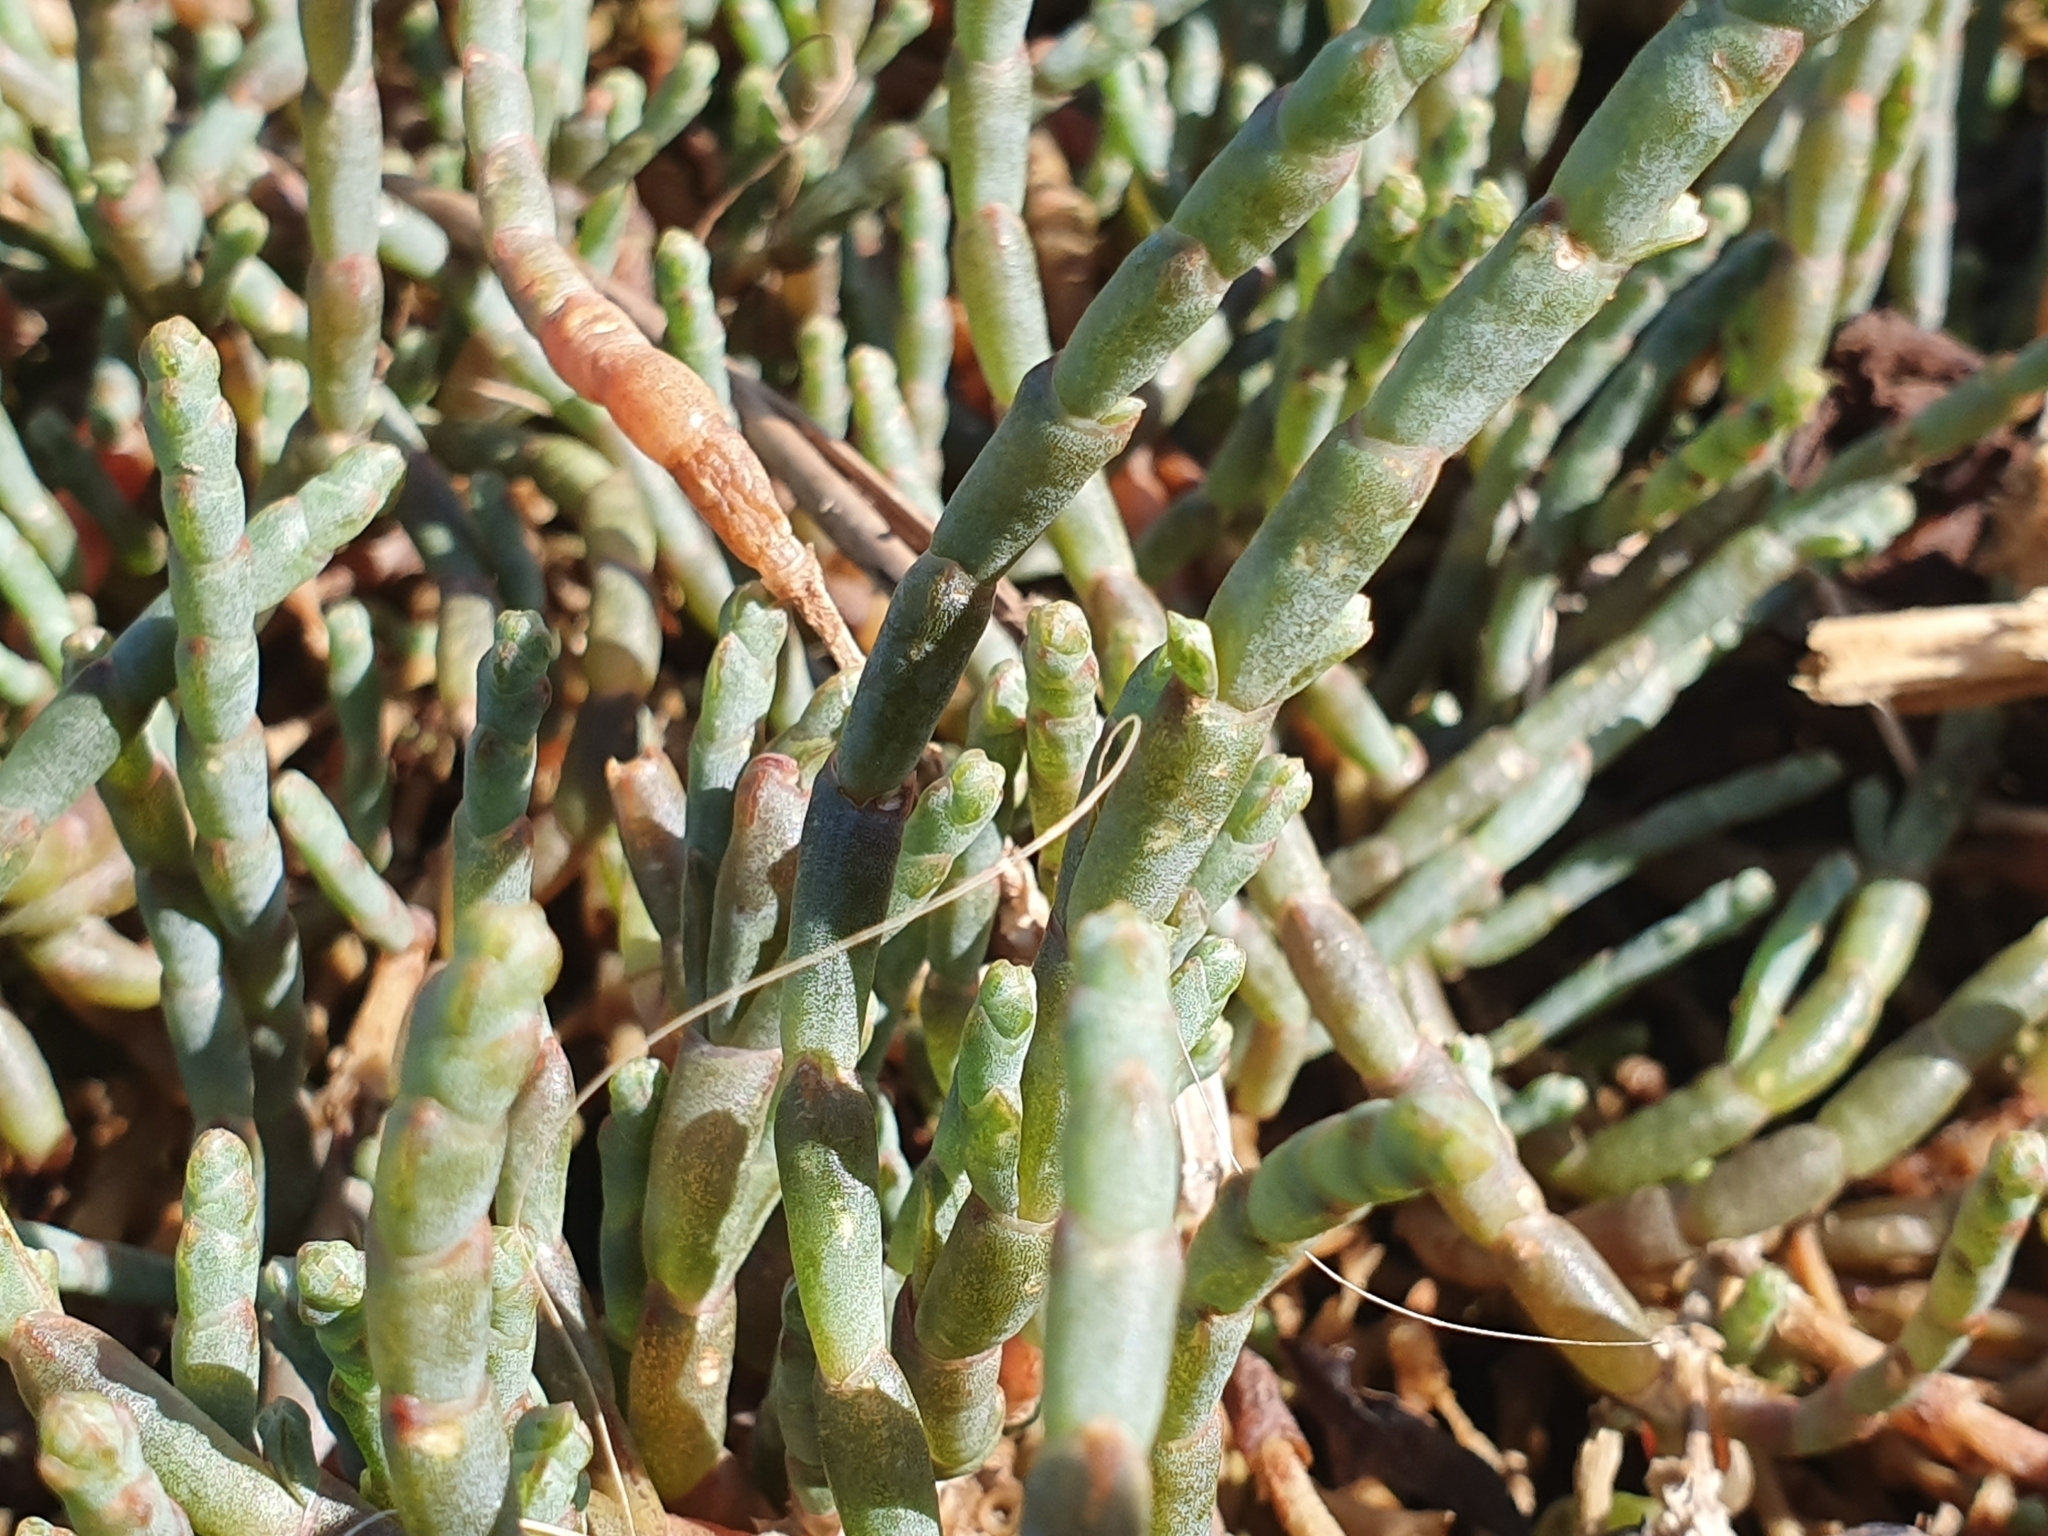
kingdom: Plantae
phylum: Tracheophyta
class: Magnoliopsida
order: Caryophyllales
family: Amaranthaceae
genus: Salicornia
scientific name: Salicornia quinqueflora
